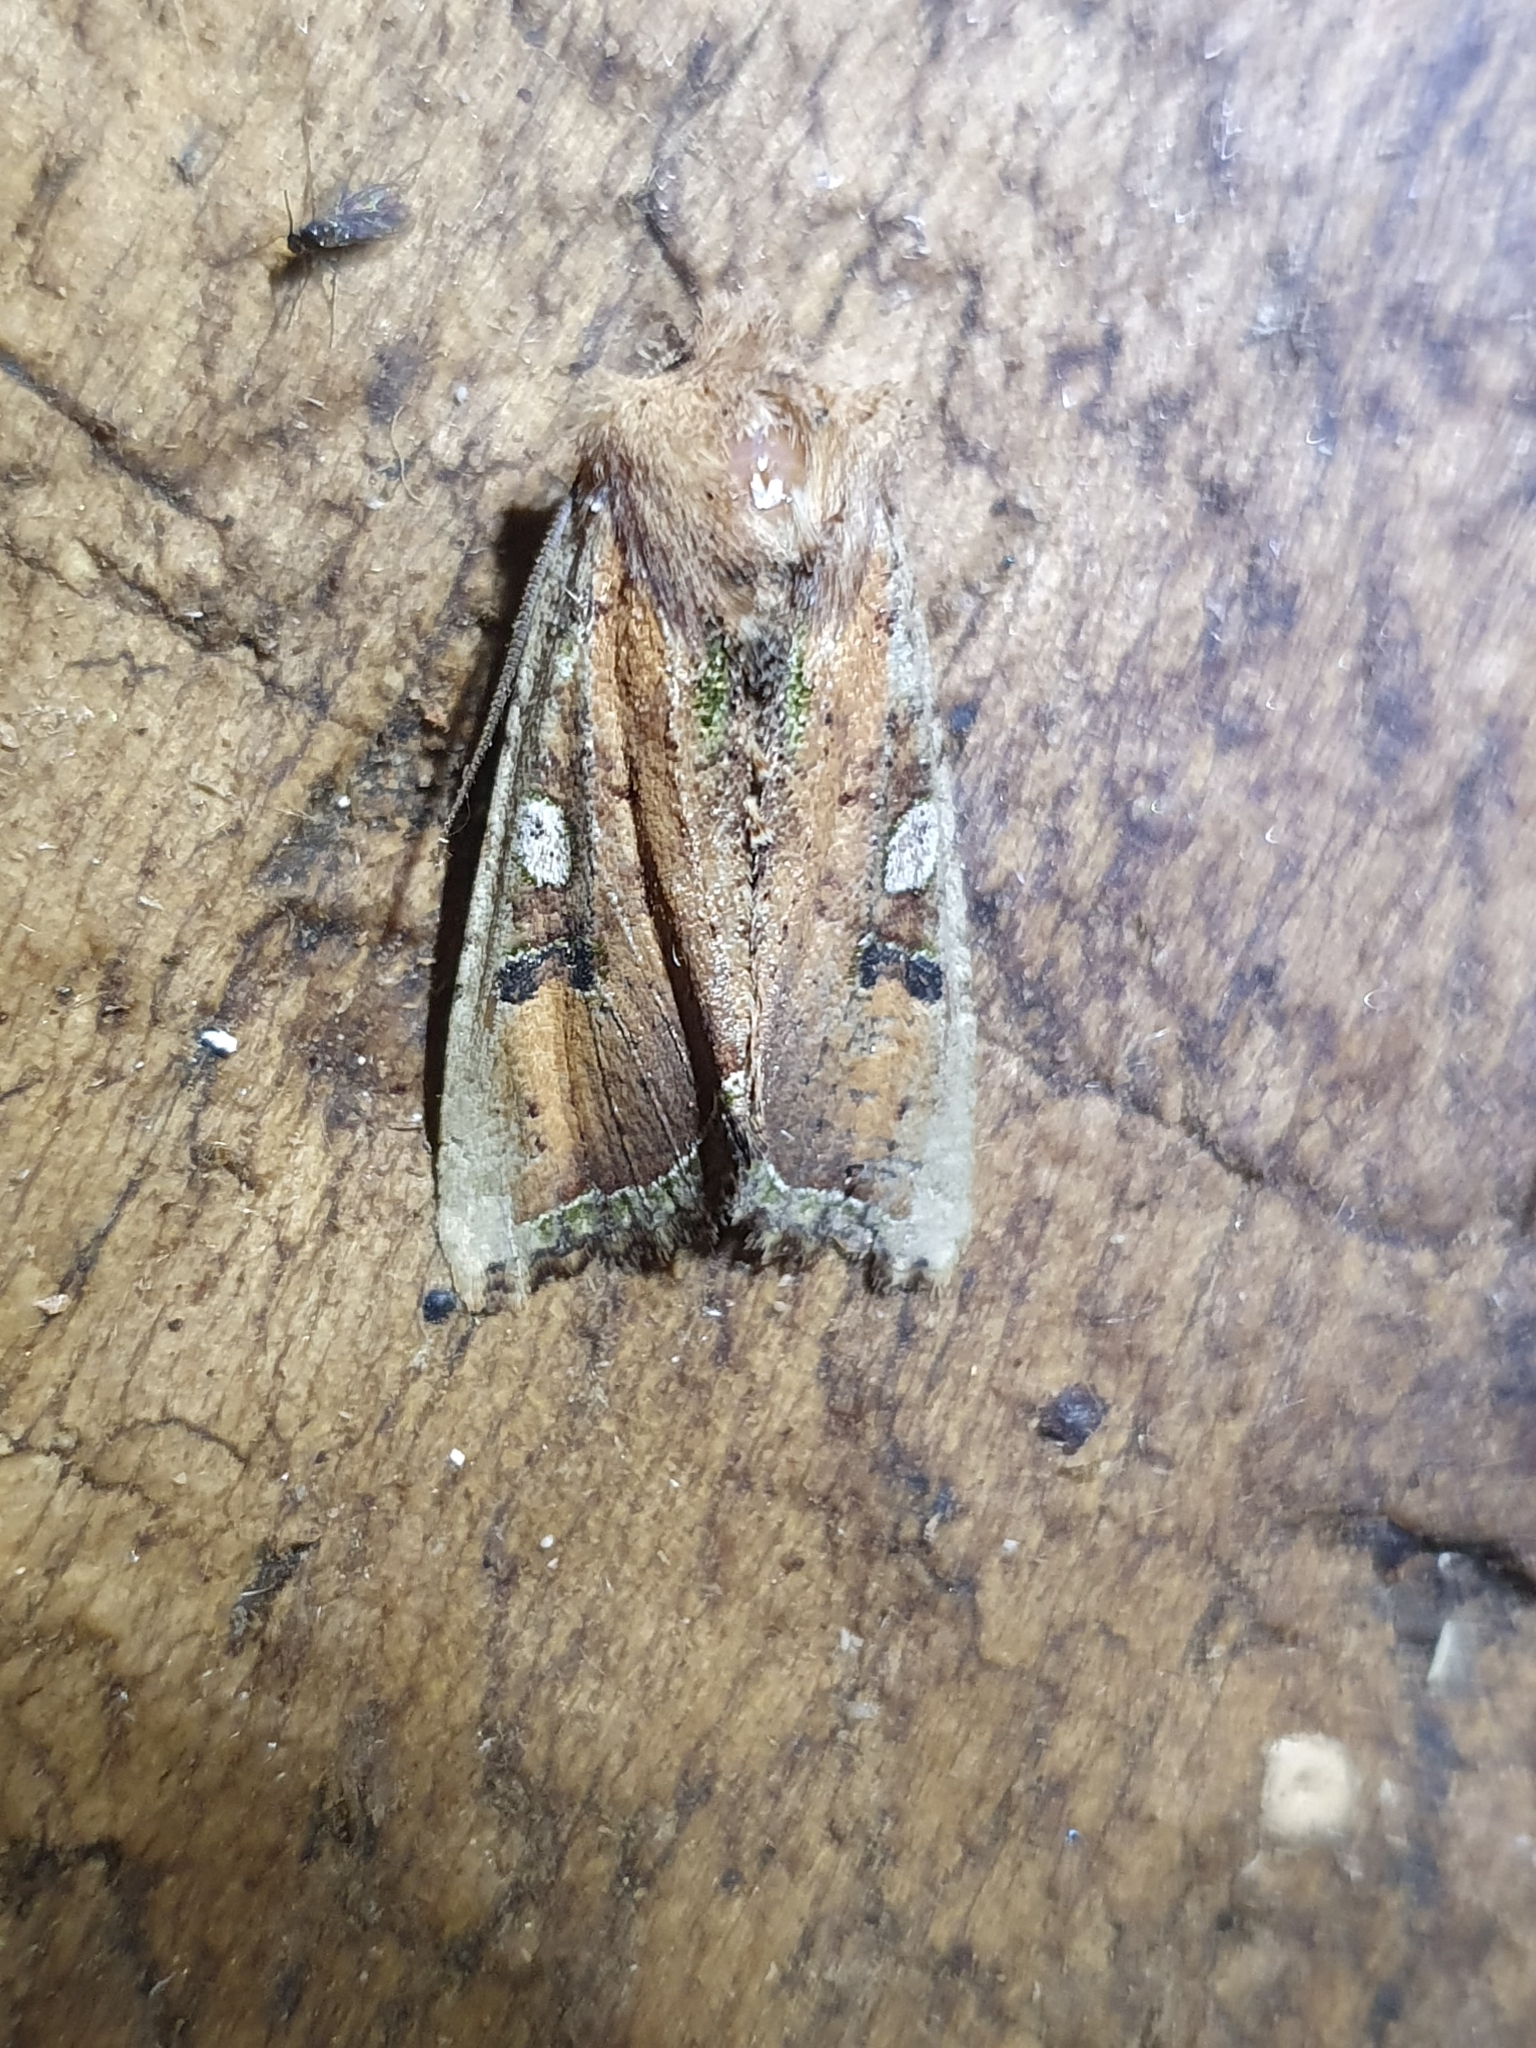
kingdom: Animalia
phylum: Arthropoda
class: Insecta
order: Lepidoptera
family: Noctuidae
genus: Meterana
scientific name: Meterana inchoata
